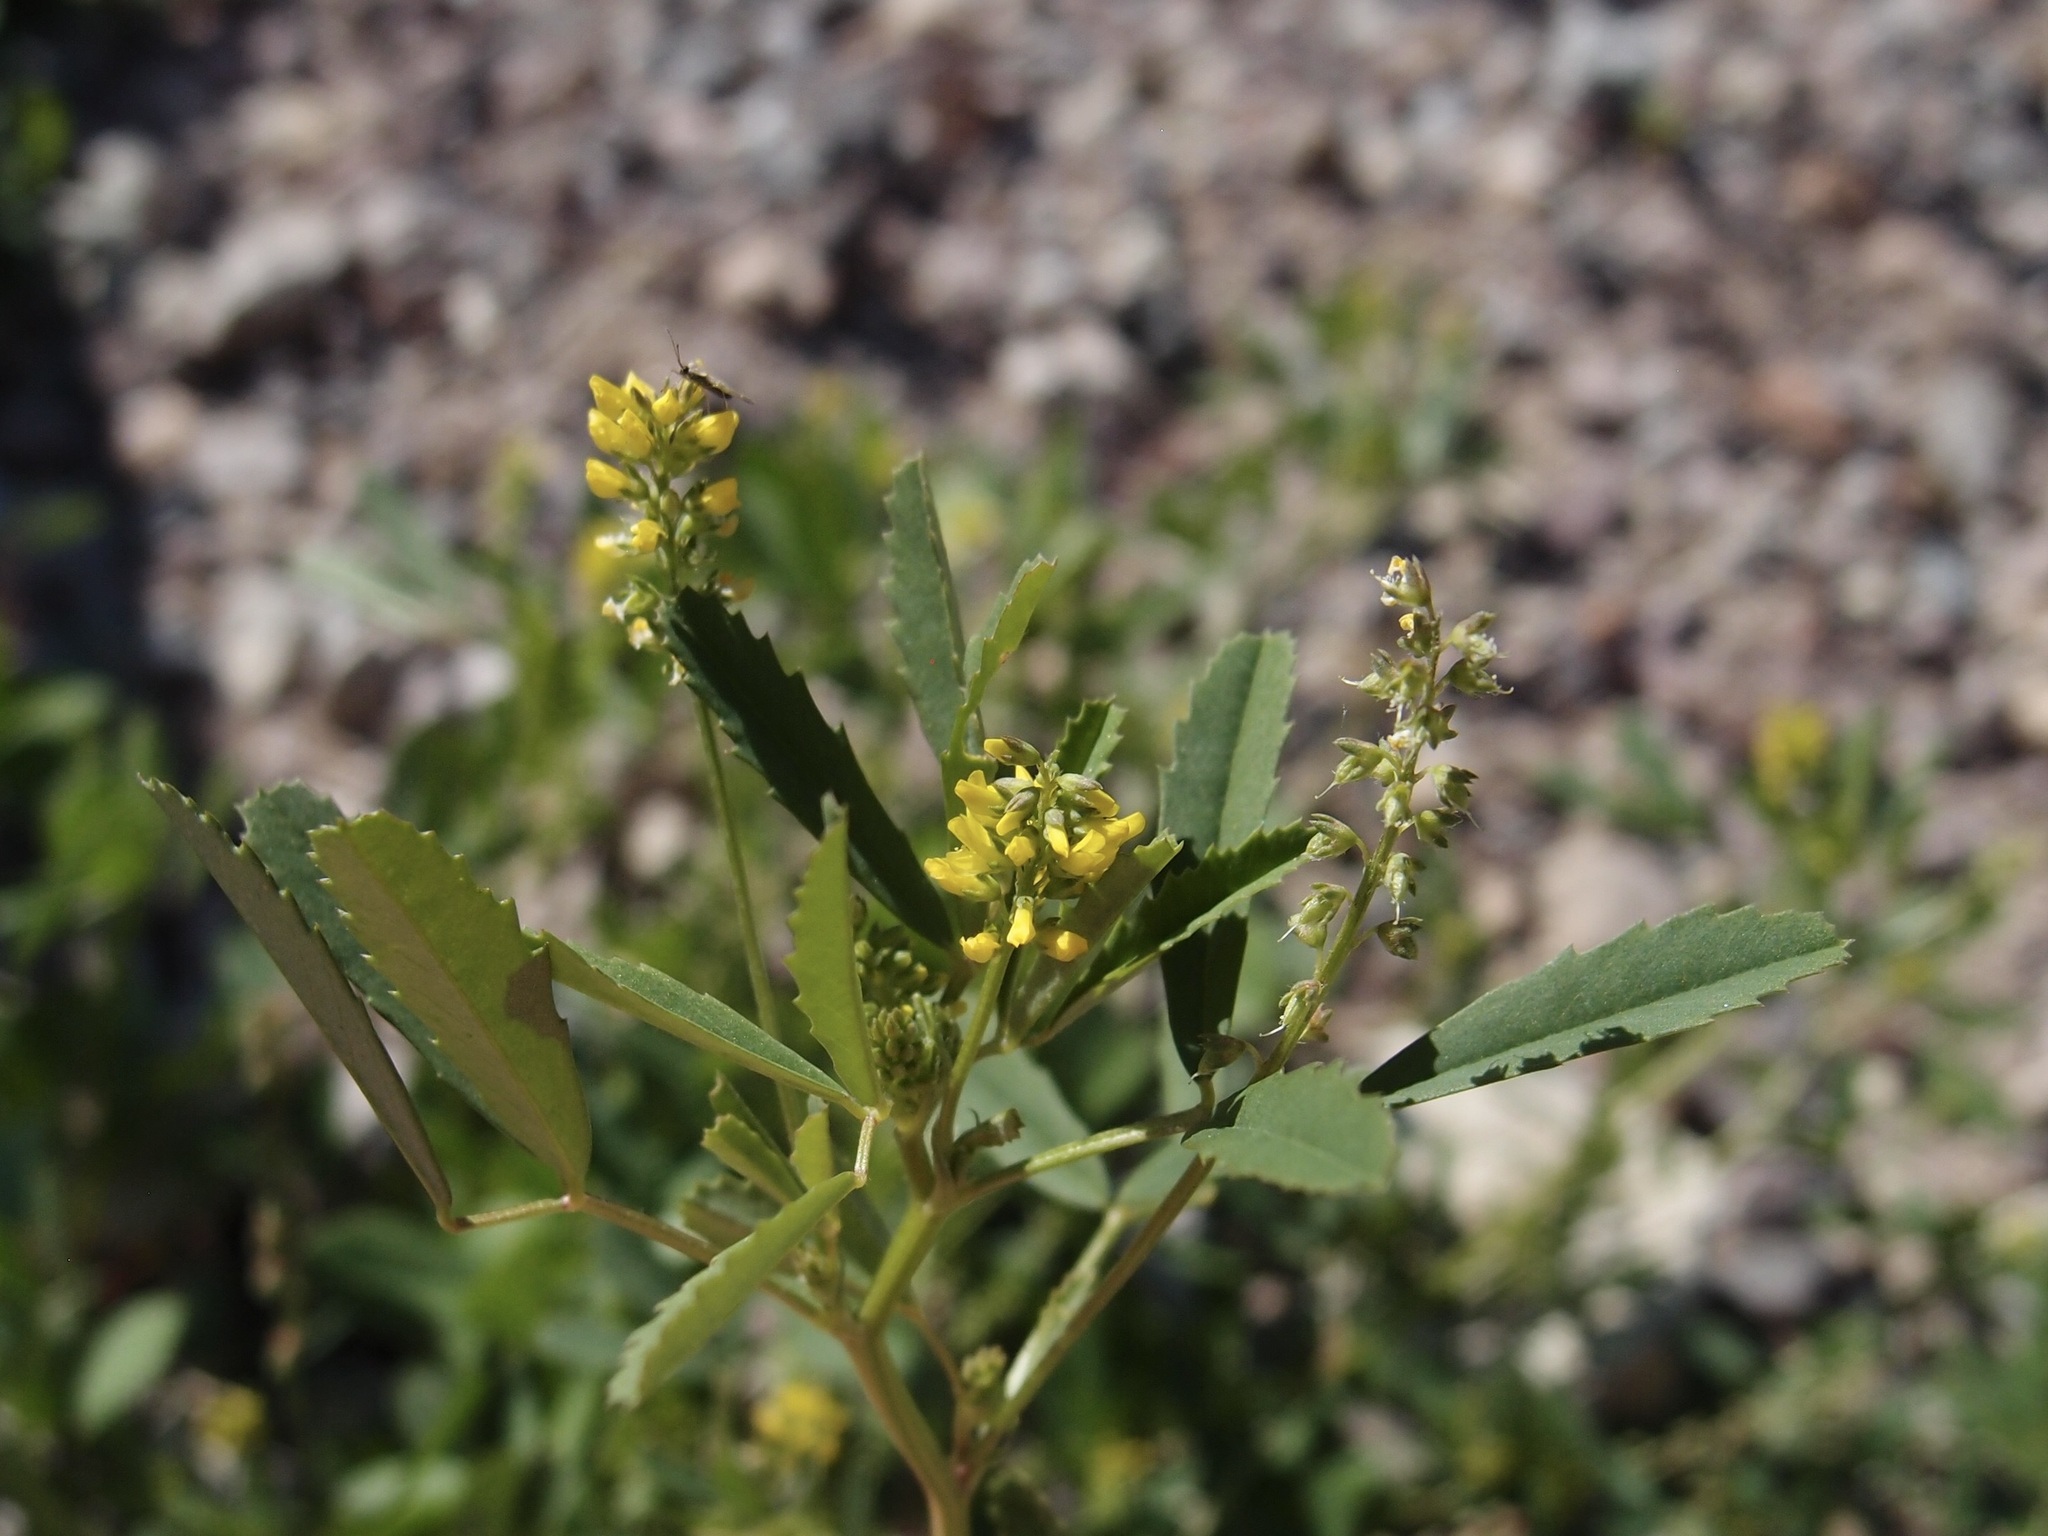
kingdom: Plantae
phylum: Tracheophyta
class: Magnoliopsida
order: Fabales
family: Fabaceae
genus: Melilotus
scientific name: Melilotus indicus
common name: Small melilot
